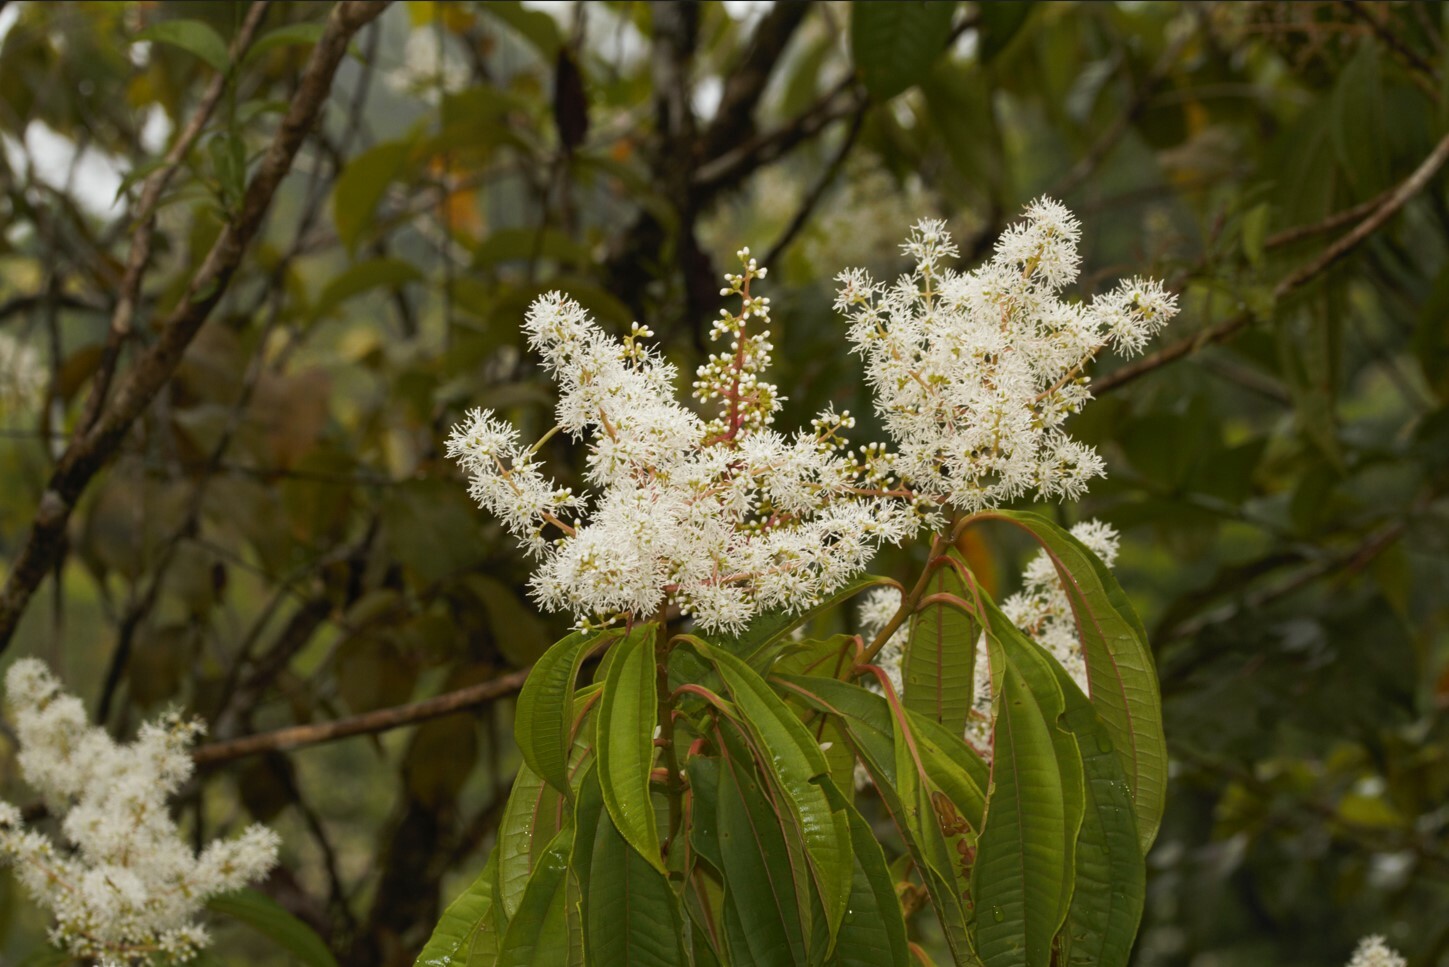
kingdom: Plantae
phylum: Tracheophyta
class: Magnoliopsida
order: Myrtales
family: Melastomataceae
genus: Miconia
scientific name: Miconia prasina
